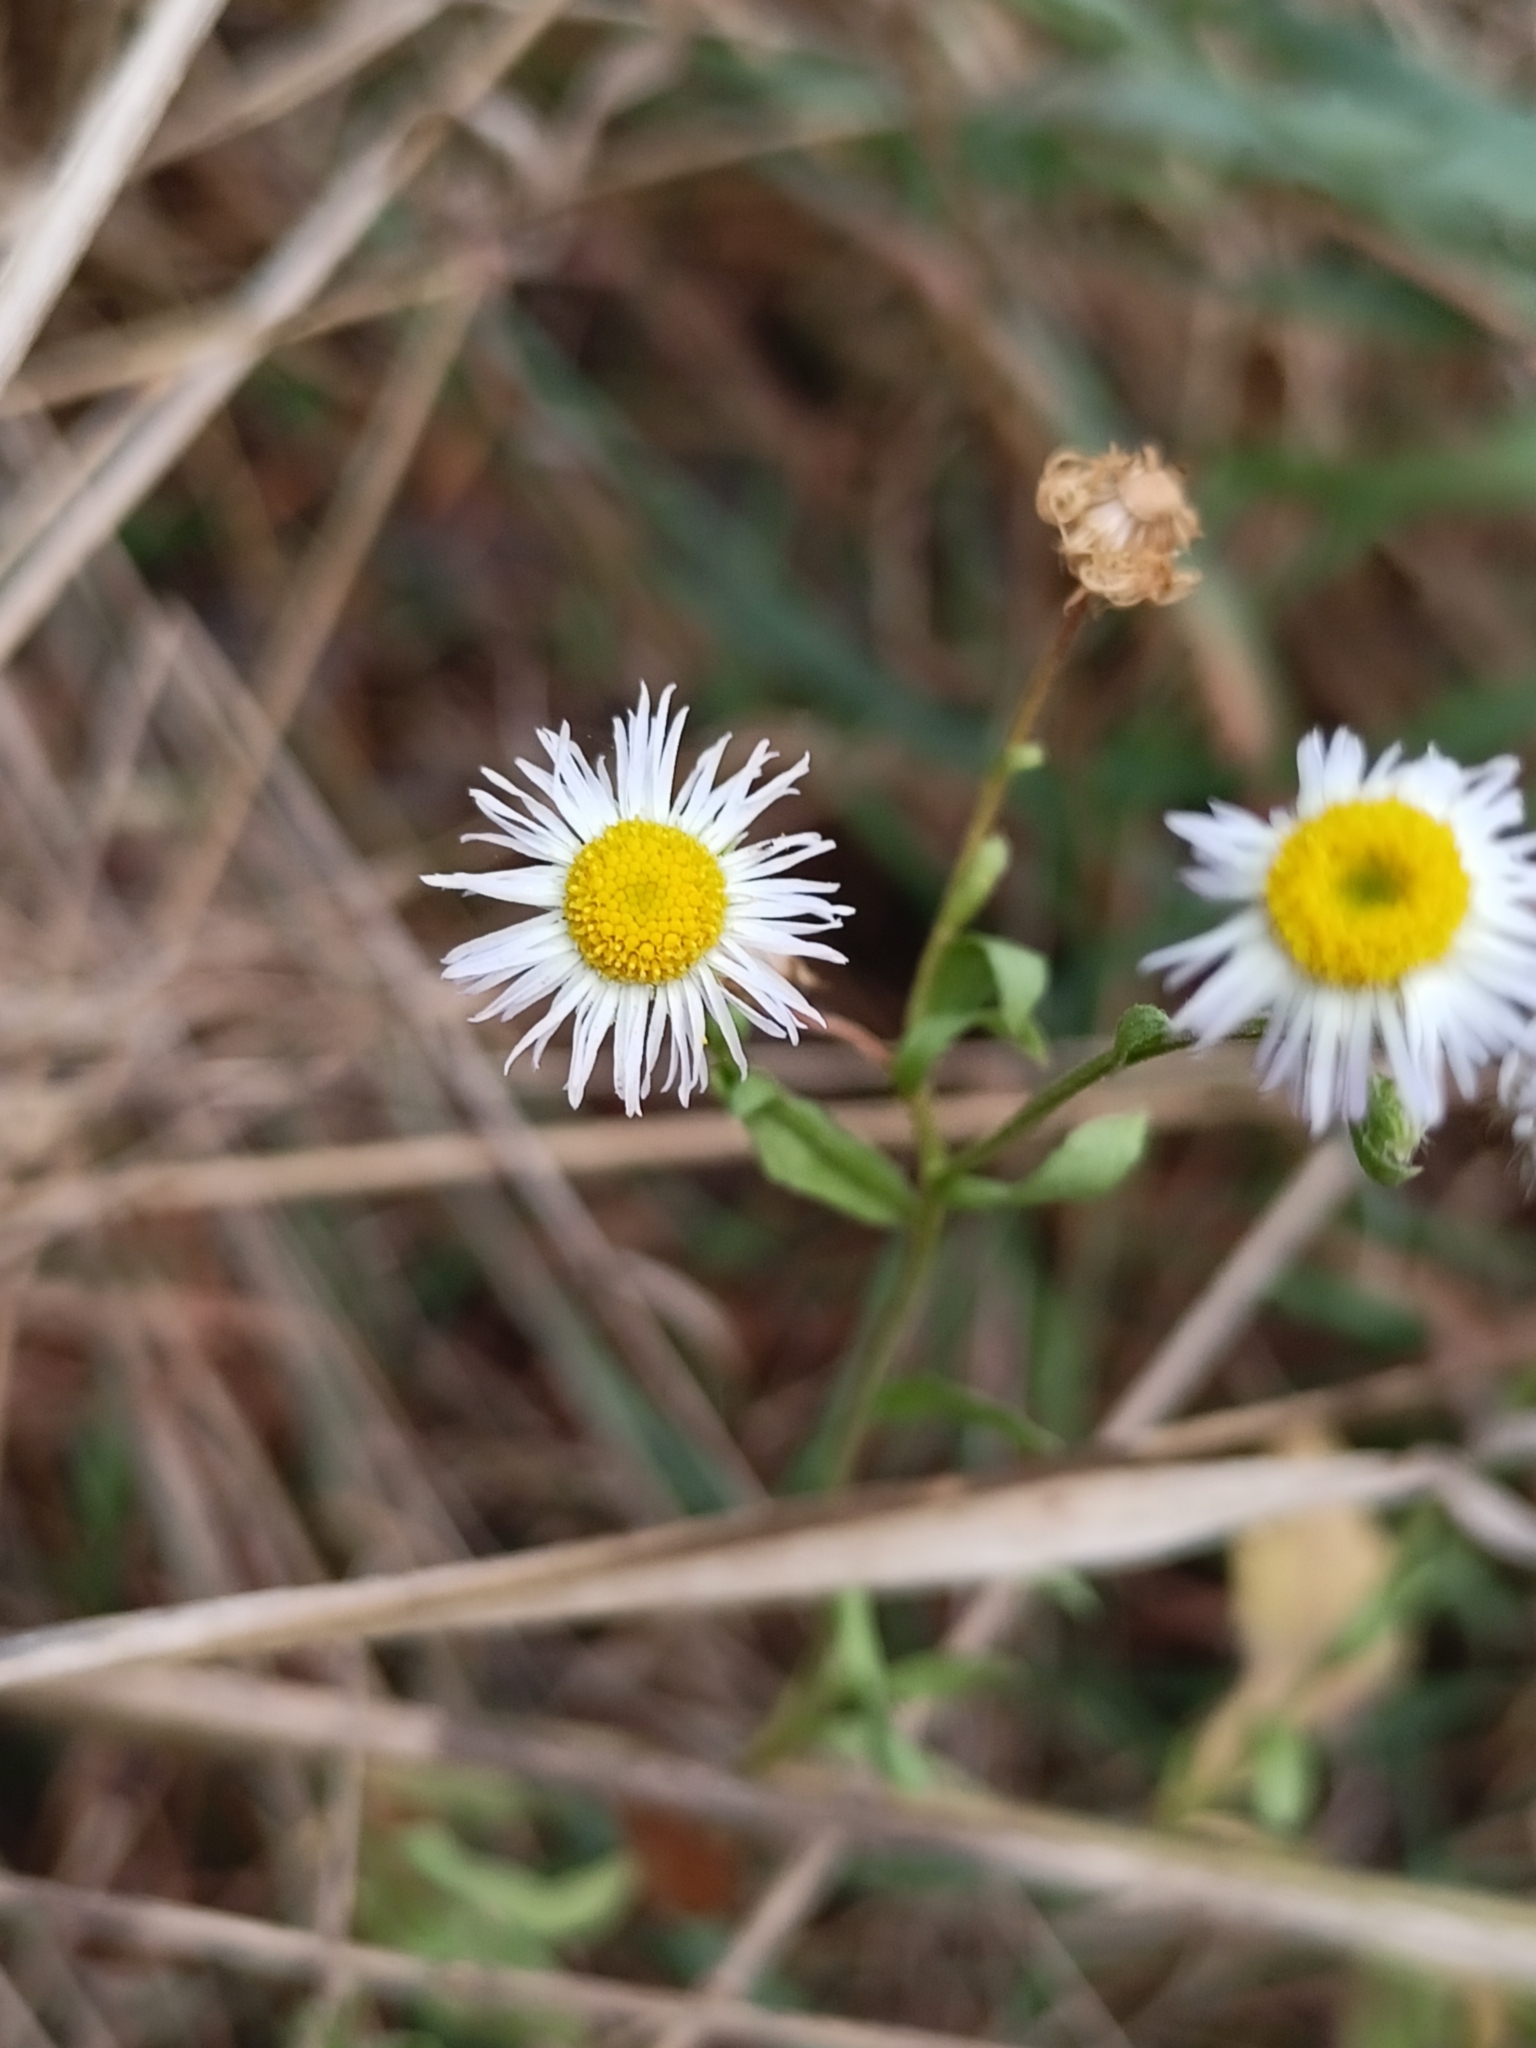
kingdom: Plantae
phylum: Tracheophyta
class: Magnoliopsida
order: Asterales
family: Asteraceae
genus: Erigeron
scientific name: Erigeron strigosus
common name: Common eastern fleabane
